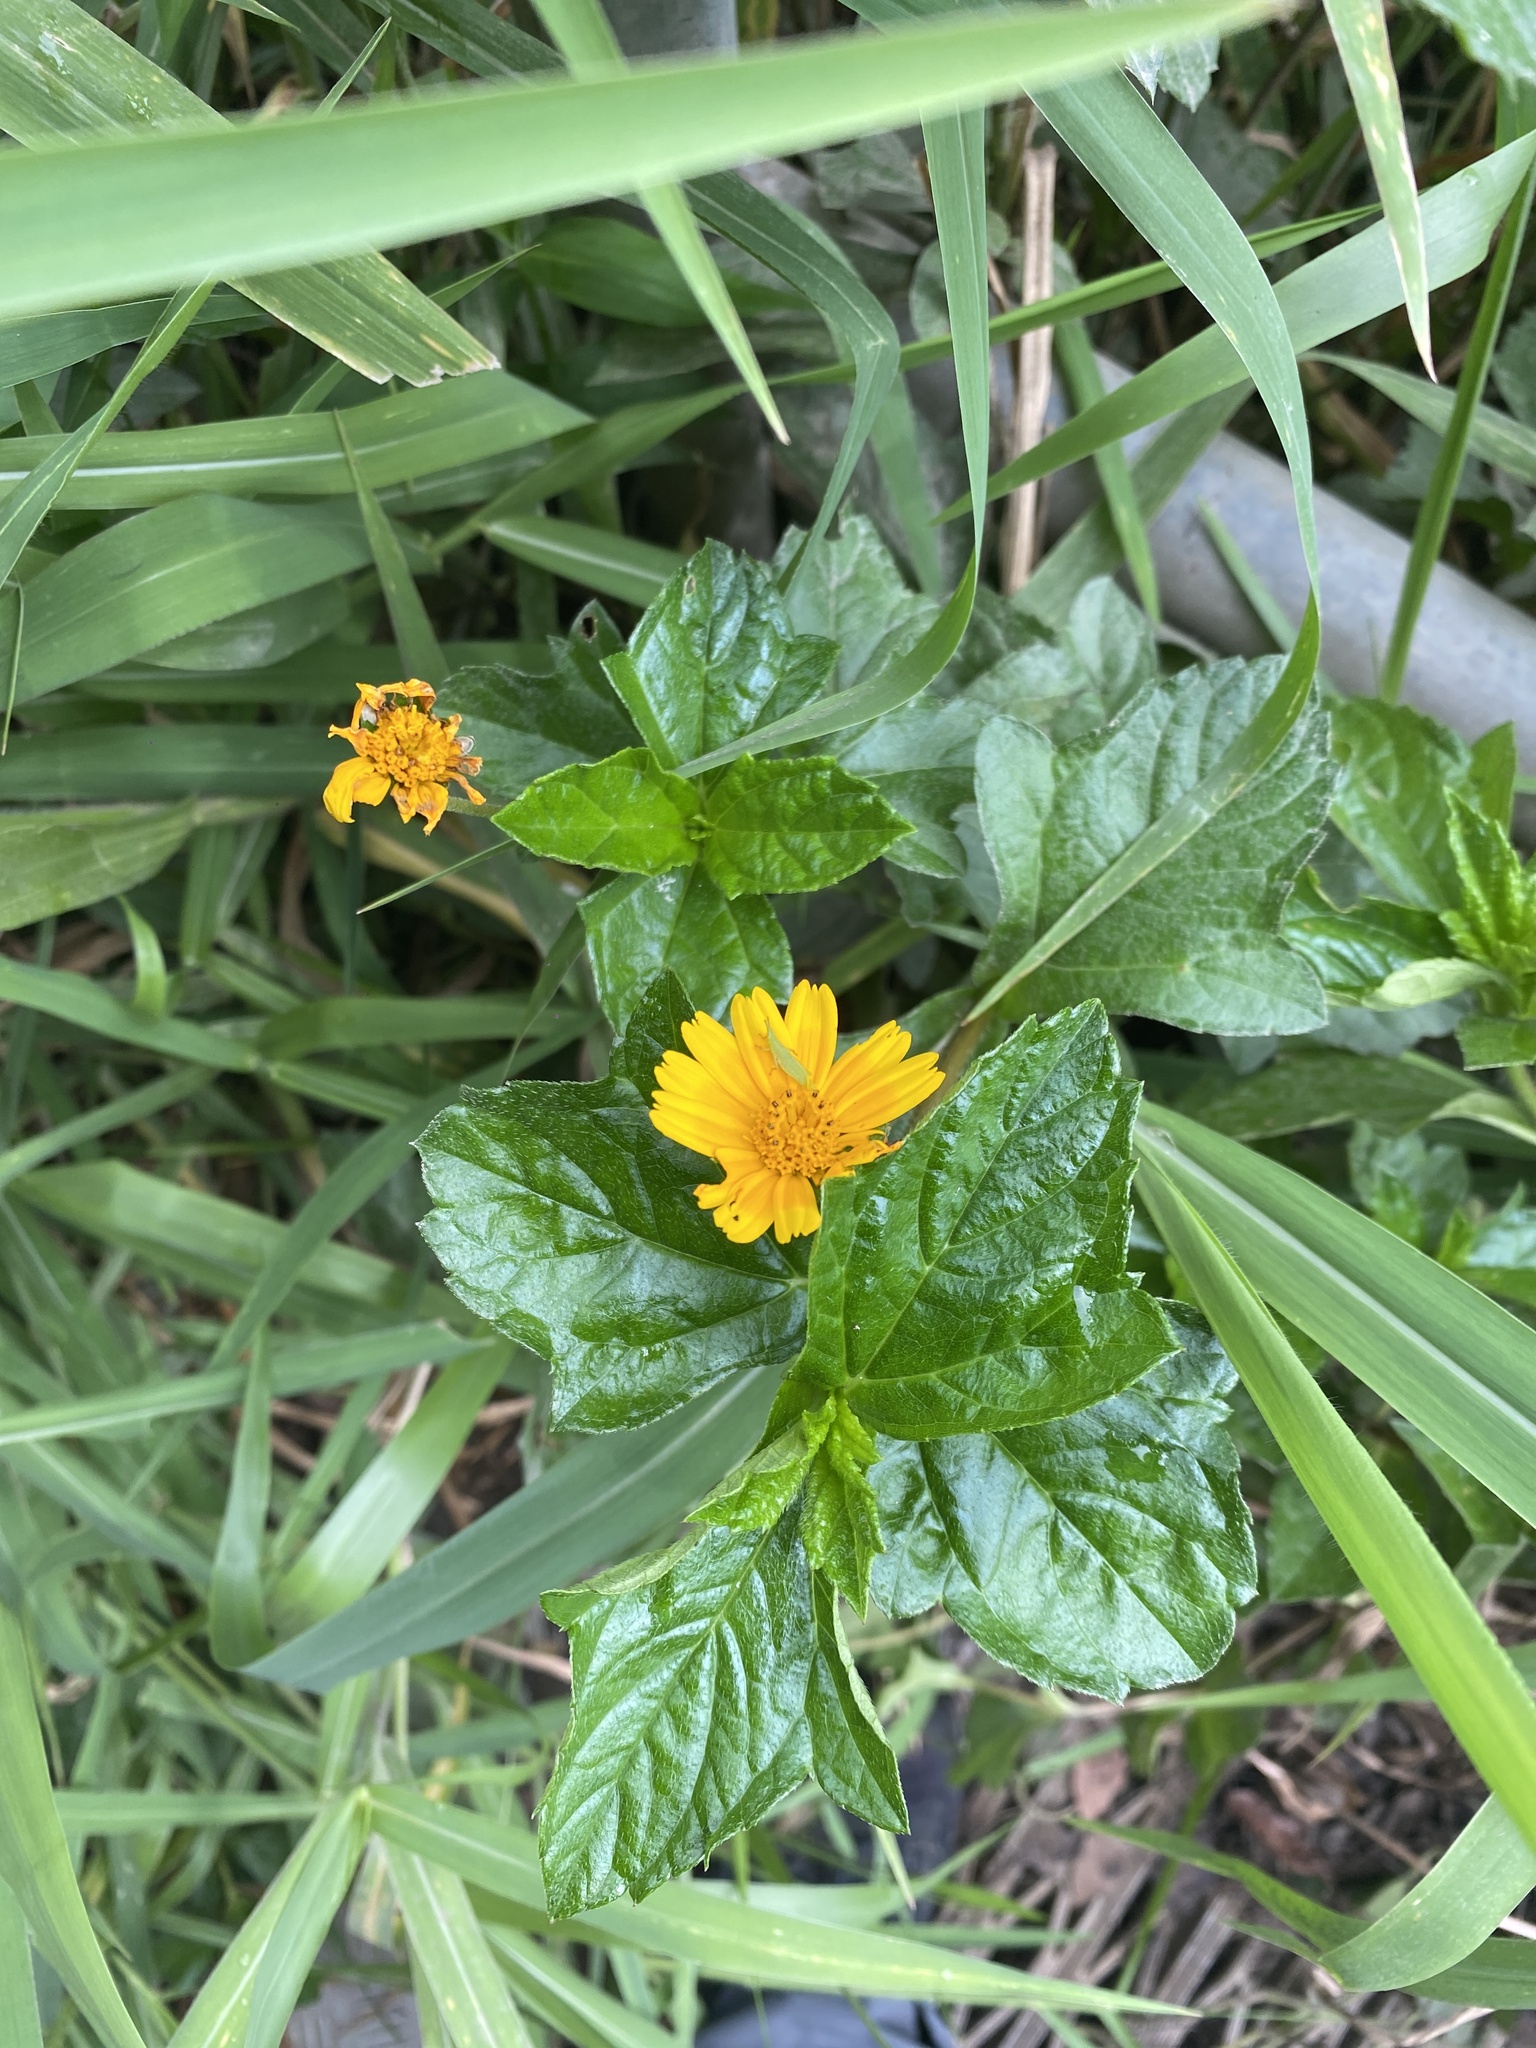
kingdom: Plantae
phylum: Tracheophyta
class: Magnoliopsida
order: Asterales
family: Asteraceae
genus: Sphagneticola
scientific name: Sphagneticola trilobata
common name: Bay biscayne creeping-oxeye
